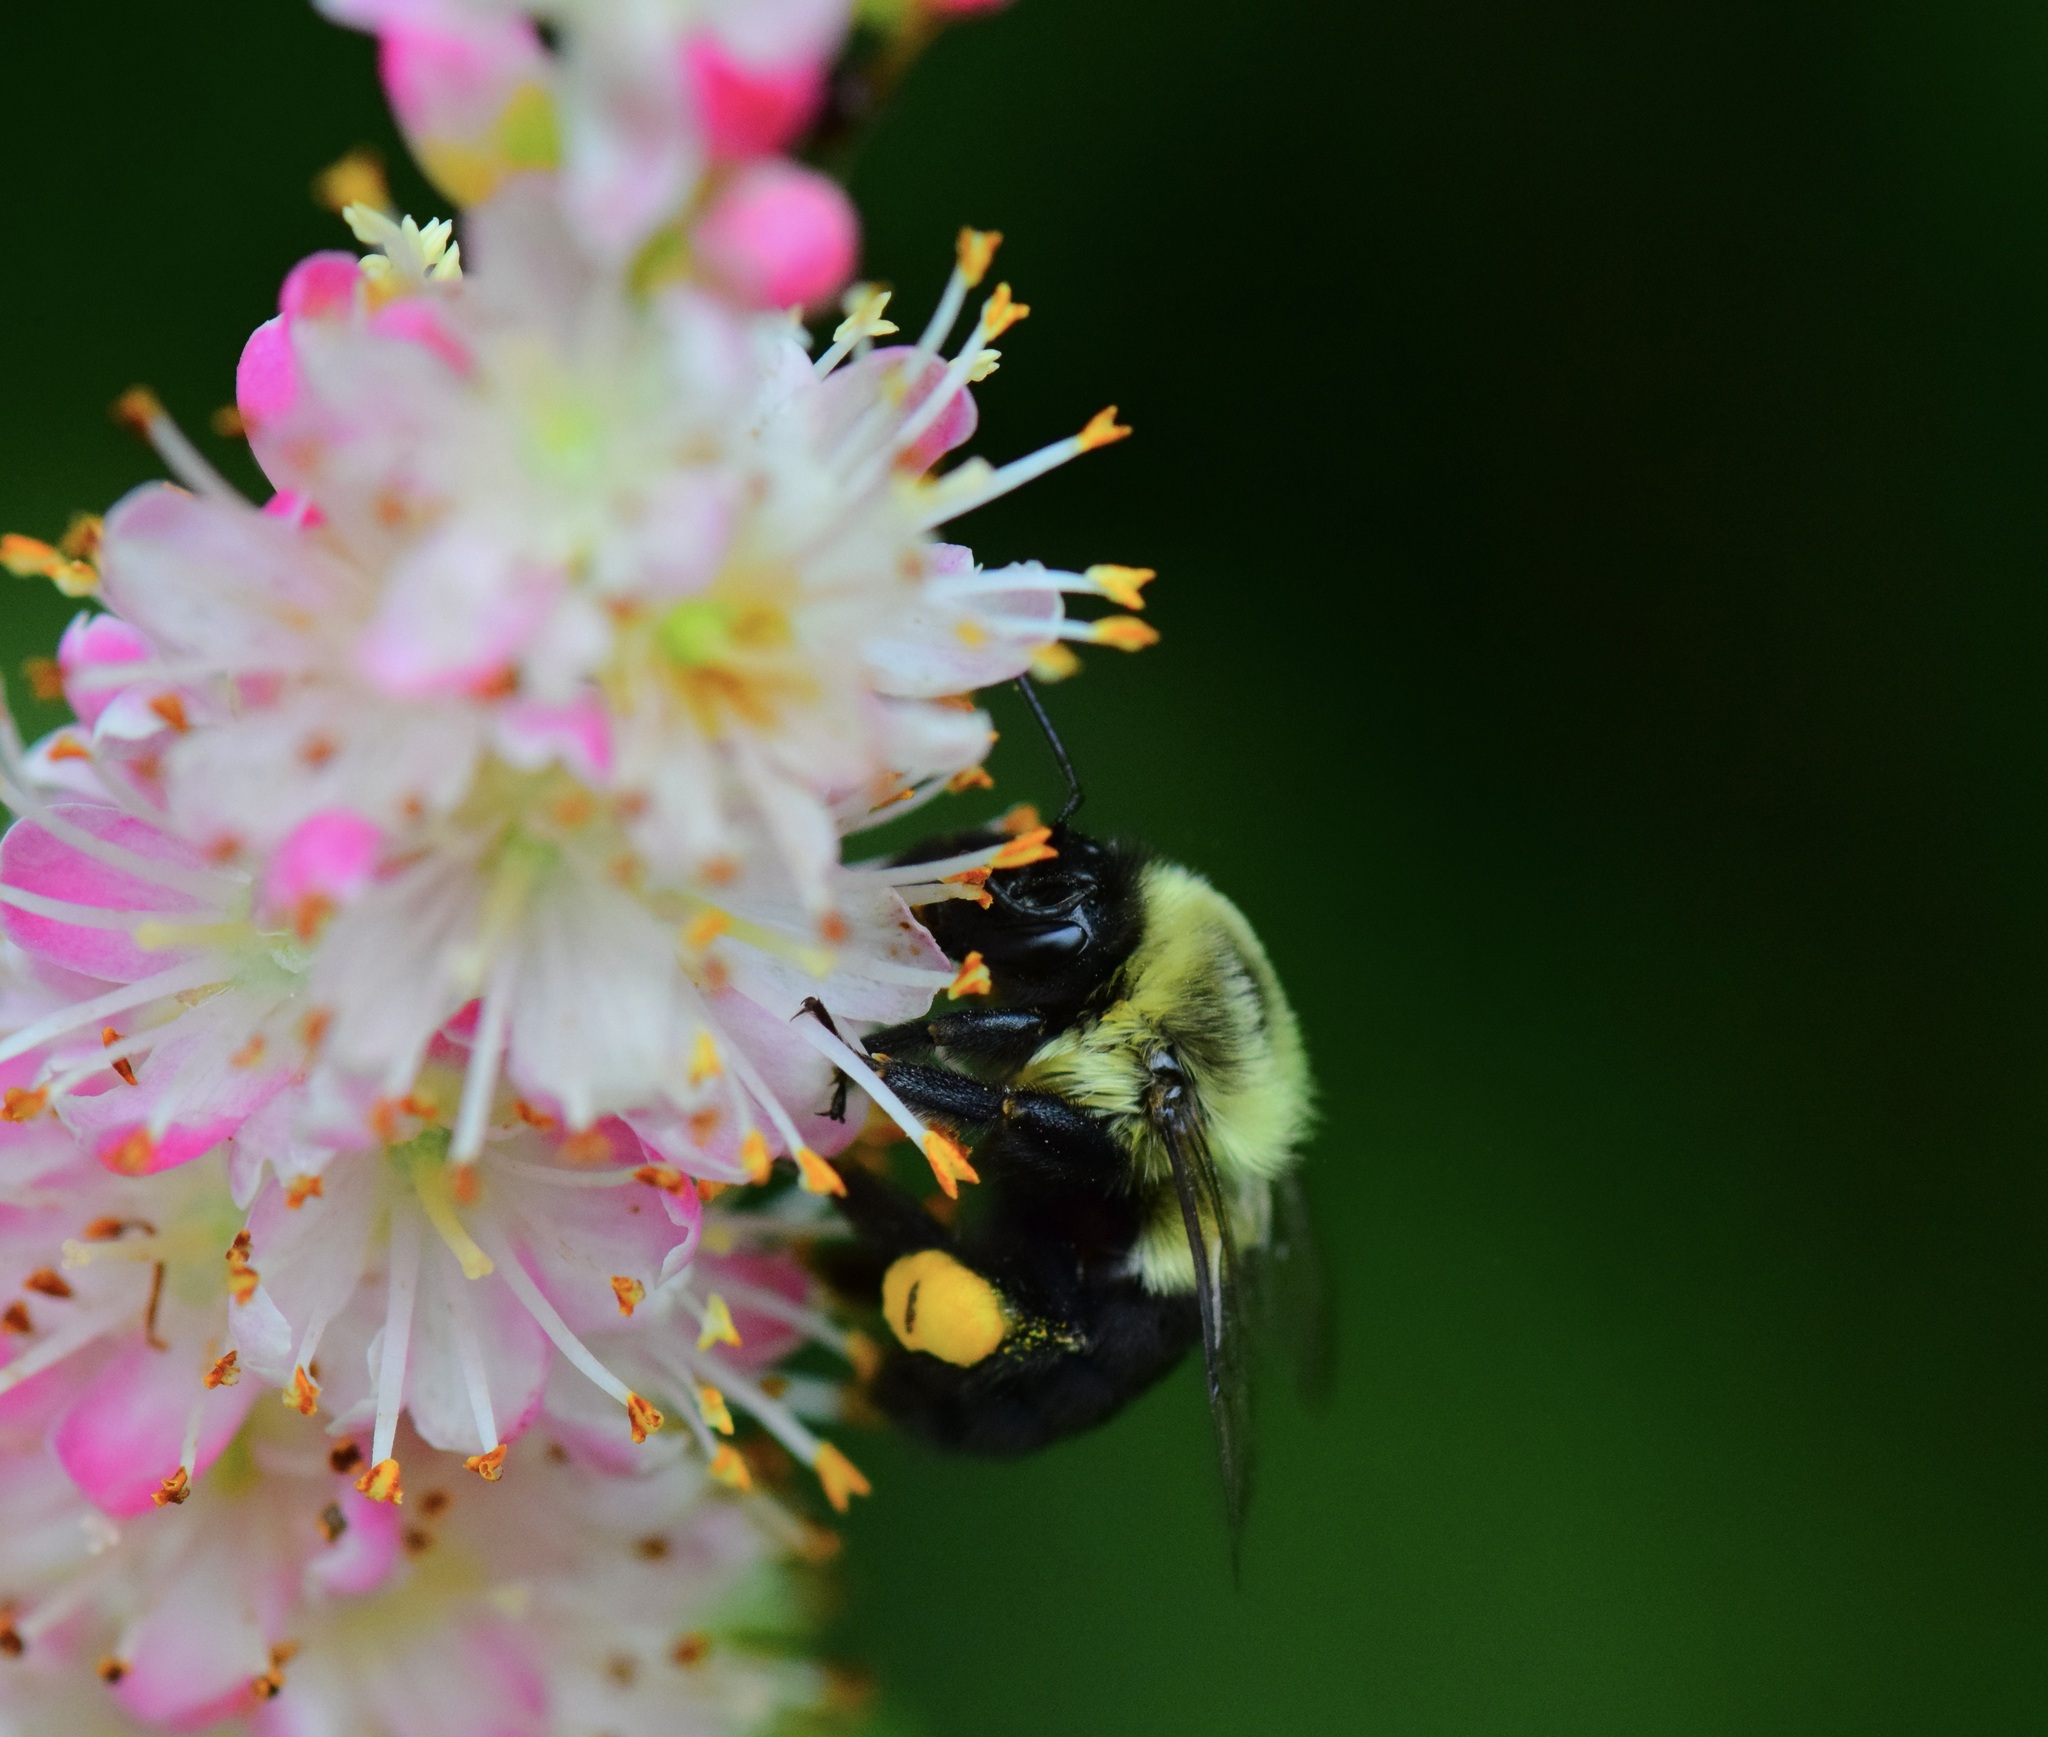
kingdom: Animalia
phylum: Arthropoda
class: Insecta
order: Hymenoptera
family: Apidae
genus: Bombus
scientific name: Bombus impatiens
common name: Common eastern bumble bee
